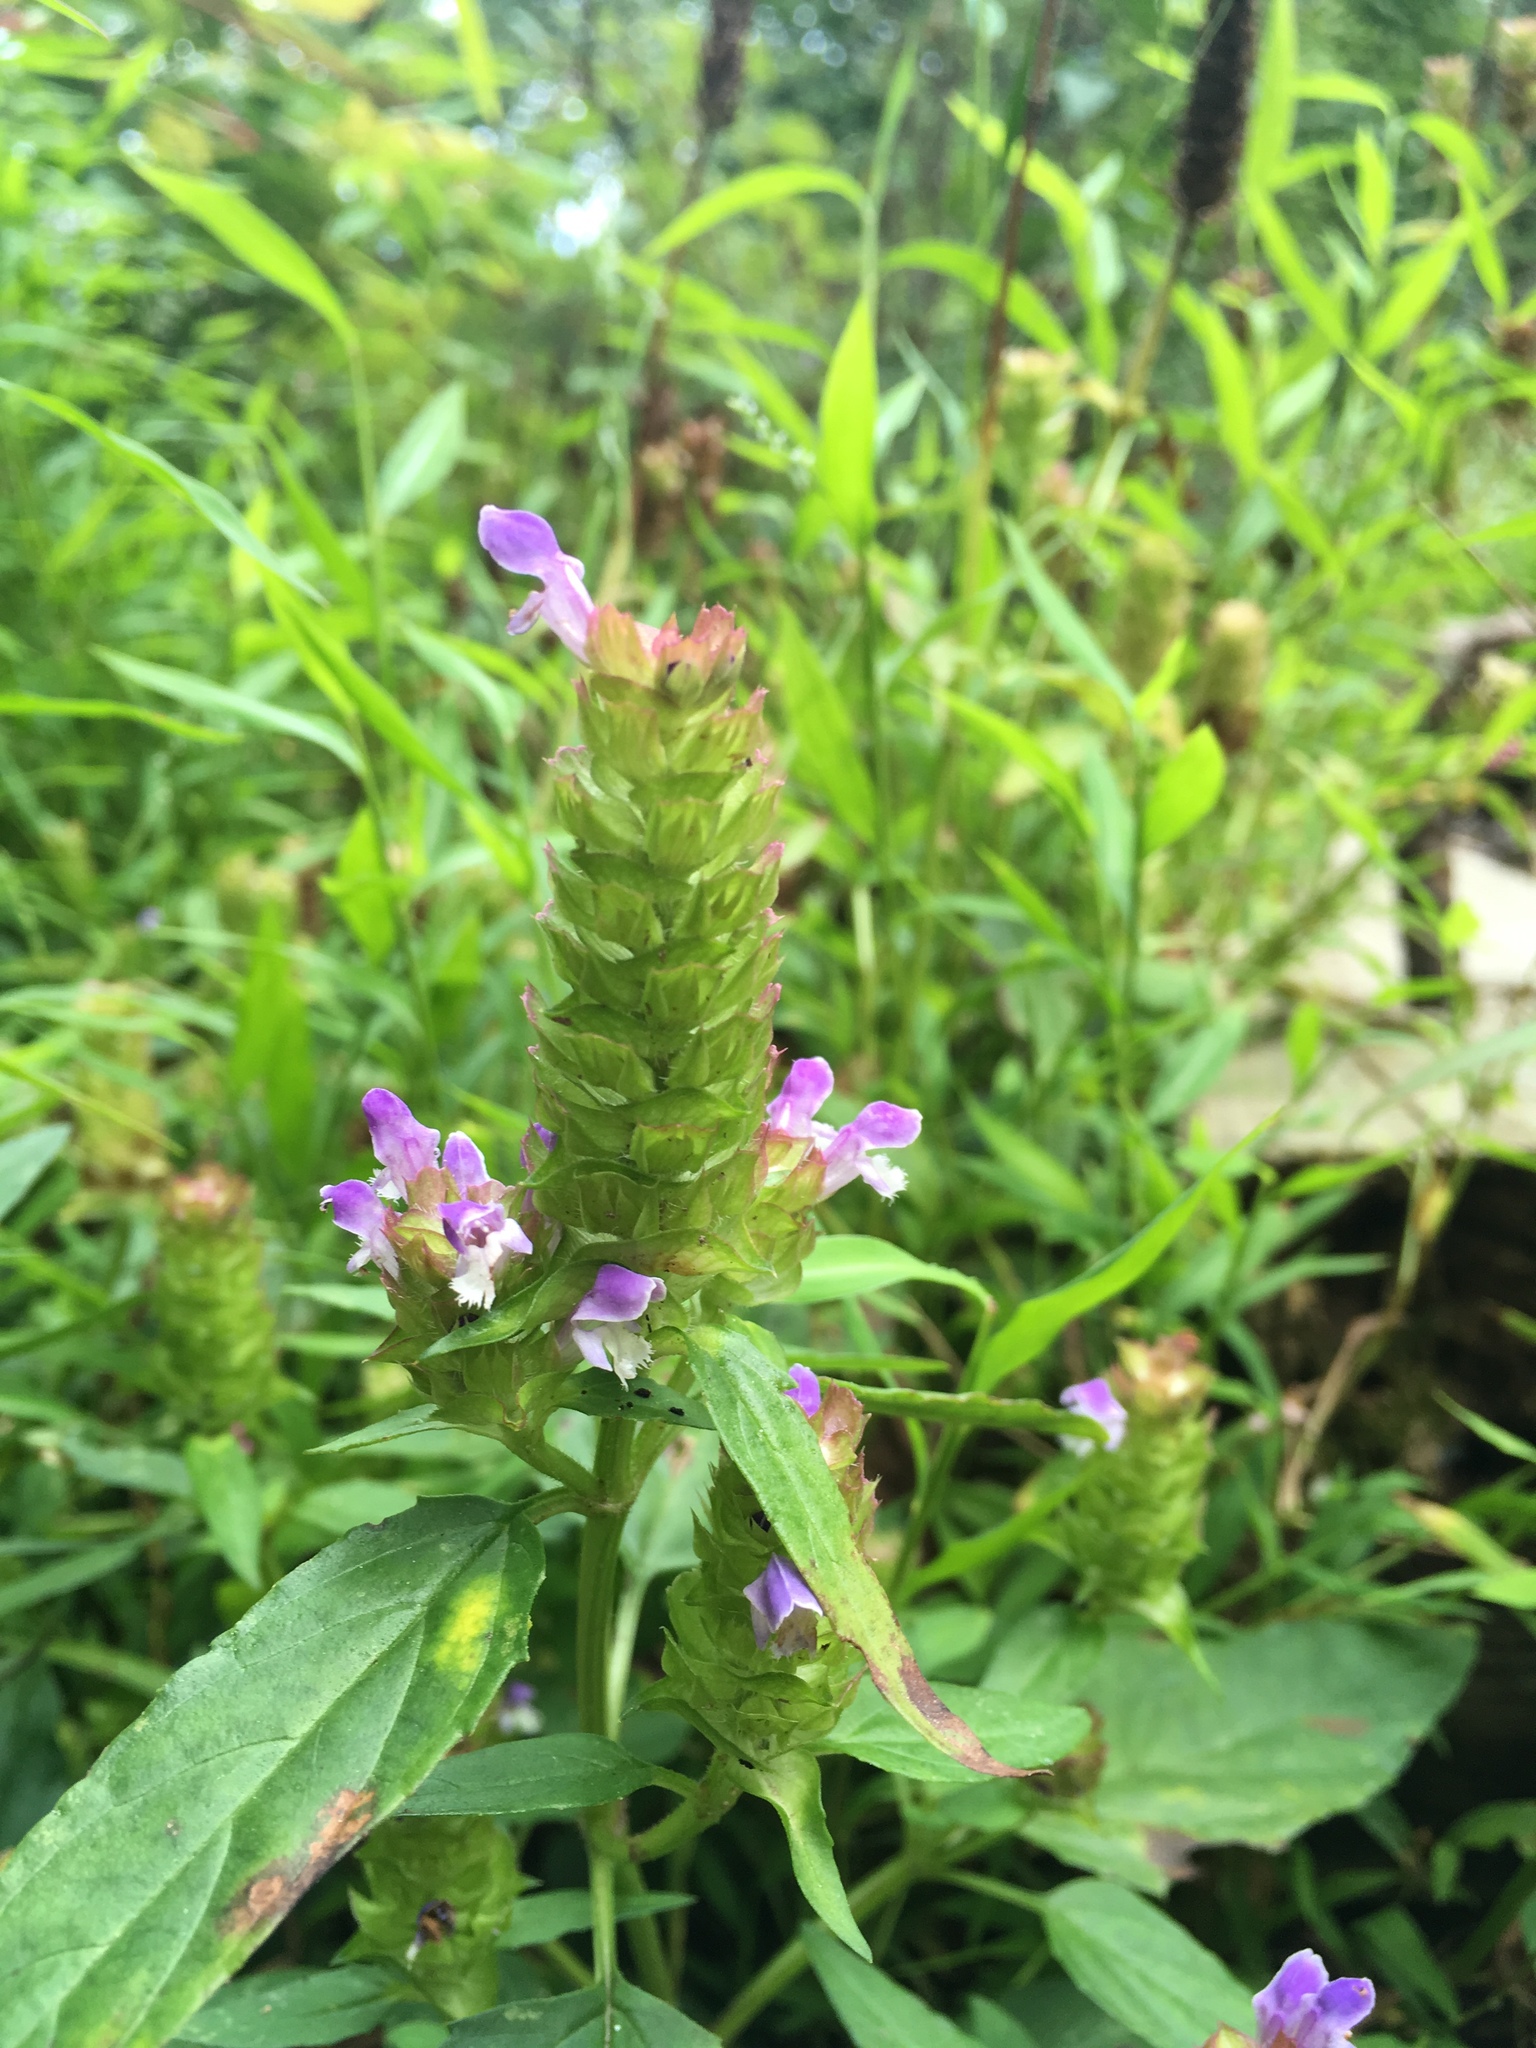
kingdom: Plantae
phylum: Tracheophyta
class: Magnoliopsida
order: Lamiales
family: Lamiaceae
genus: Prunella
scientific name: Prunella vulgaris
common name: Heal-all
